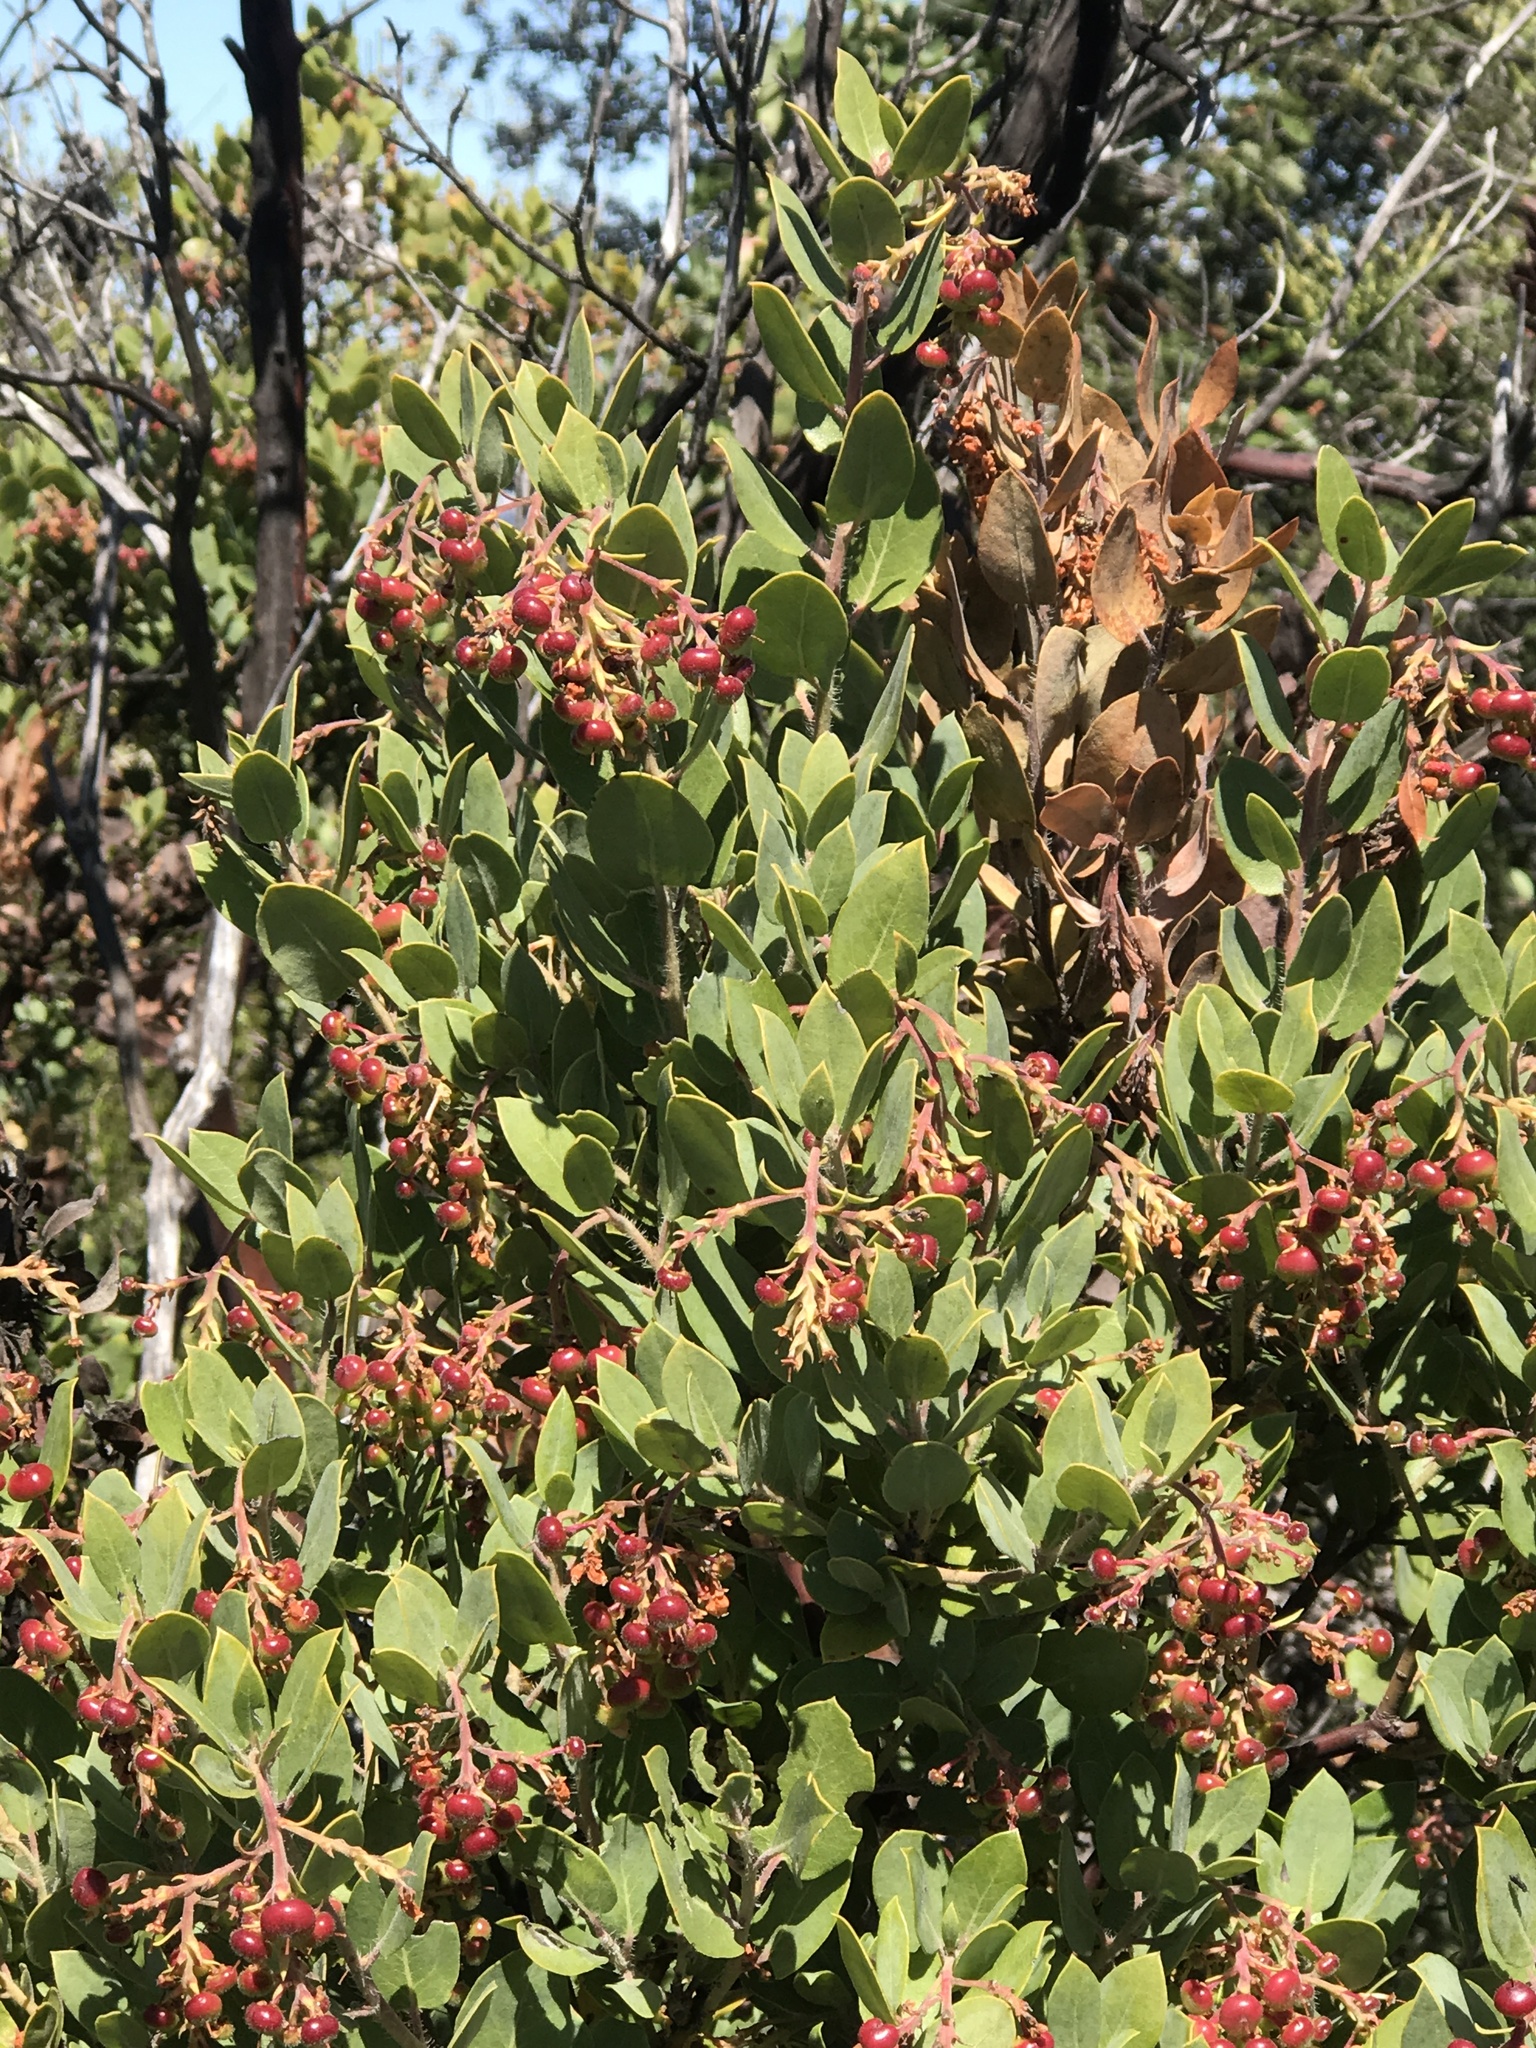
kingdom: Plantae
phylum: Tracheophyta
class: Magnoliopsida
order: Ericales
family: Ericaceae
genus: Arctostaphylos
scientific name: Arctostaphylos crustacea
